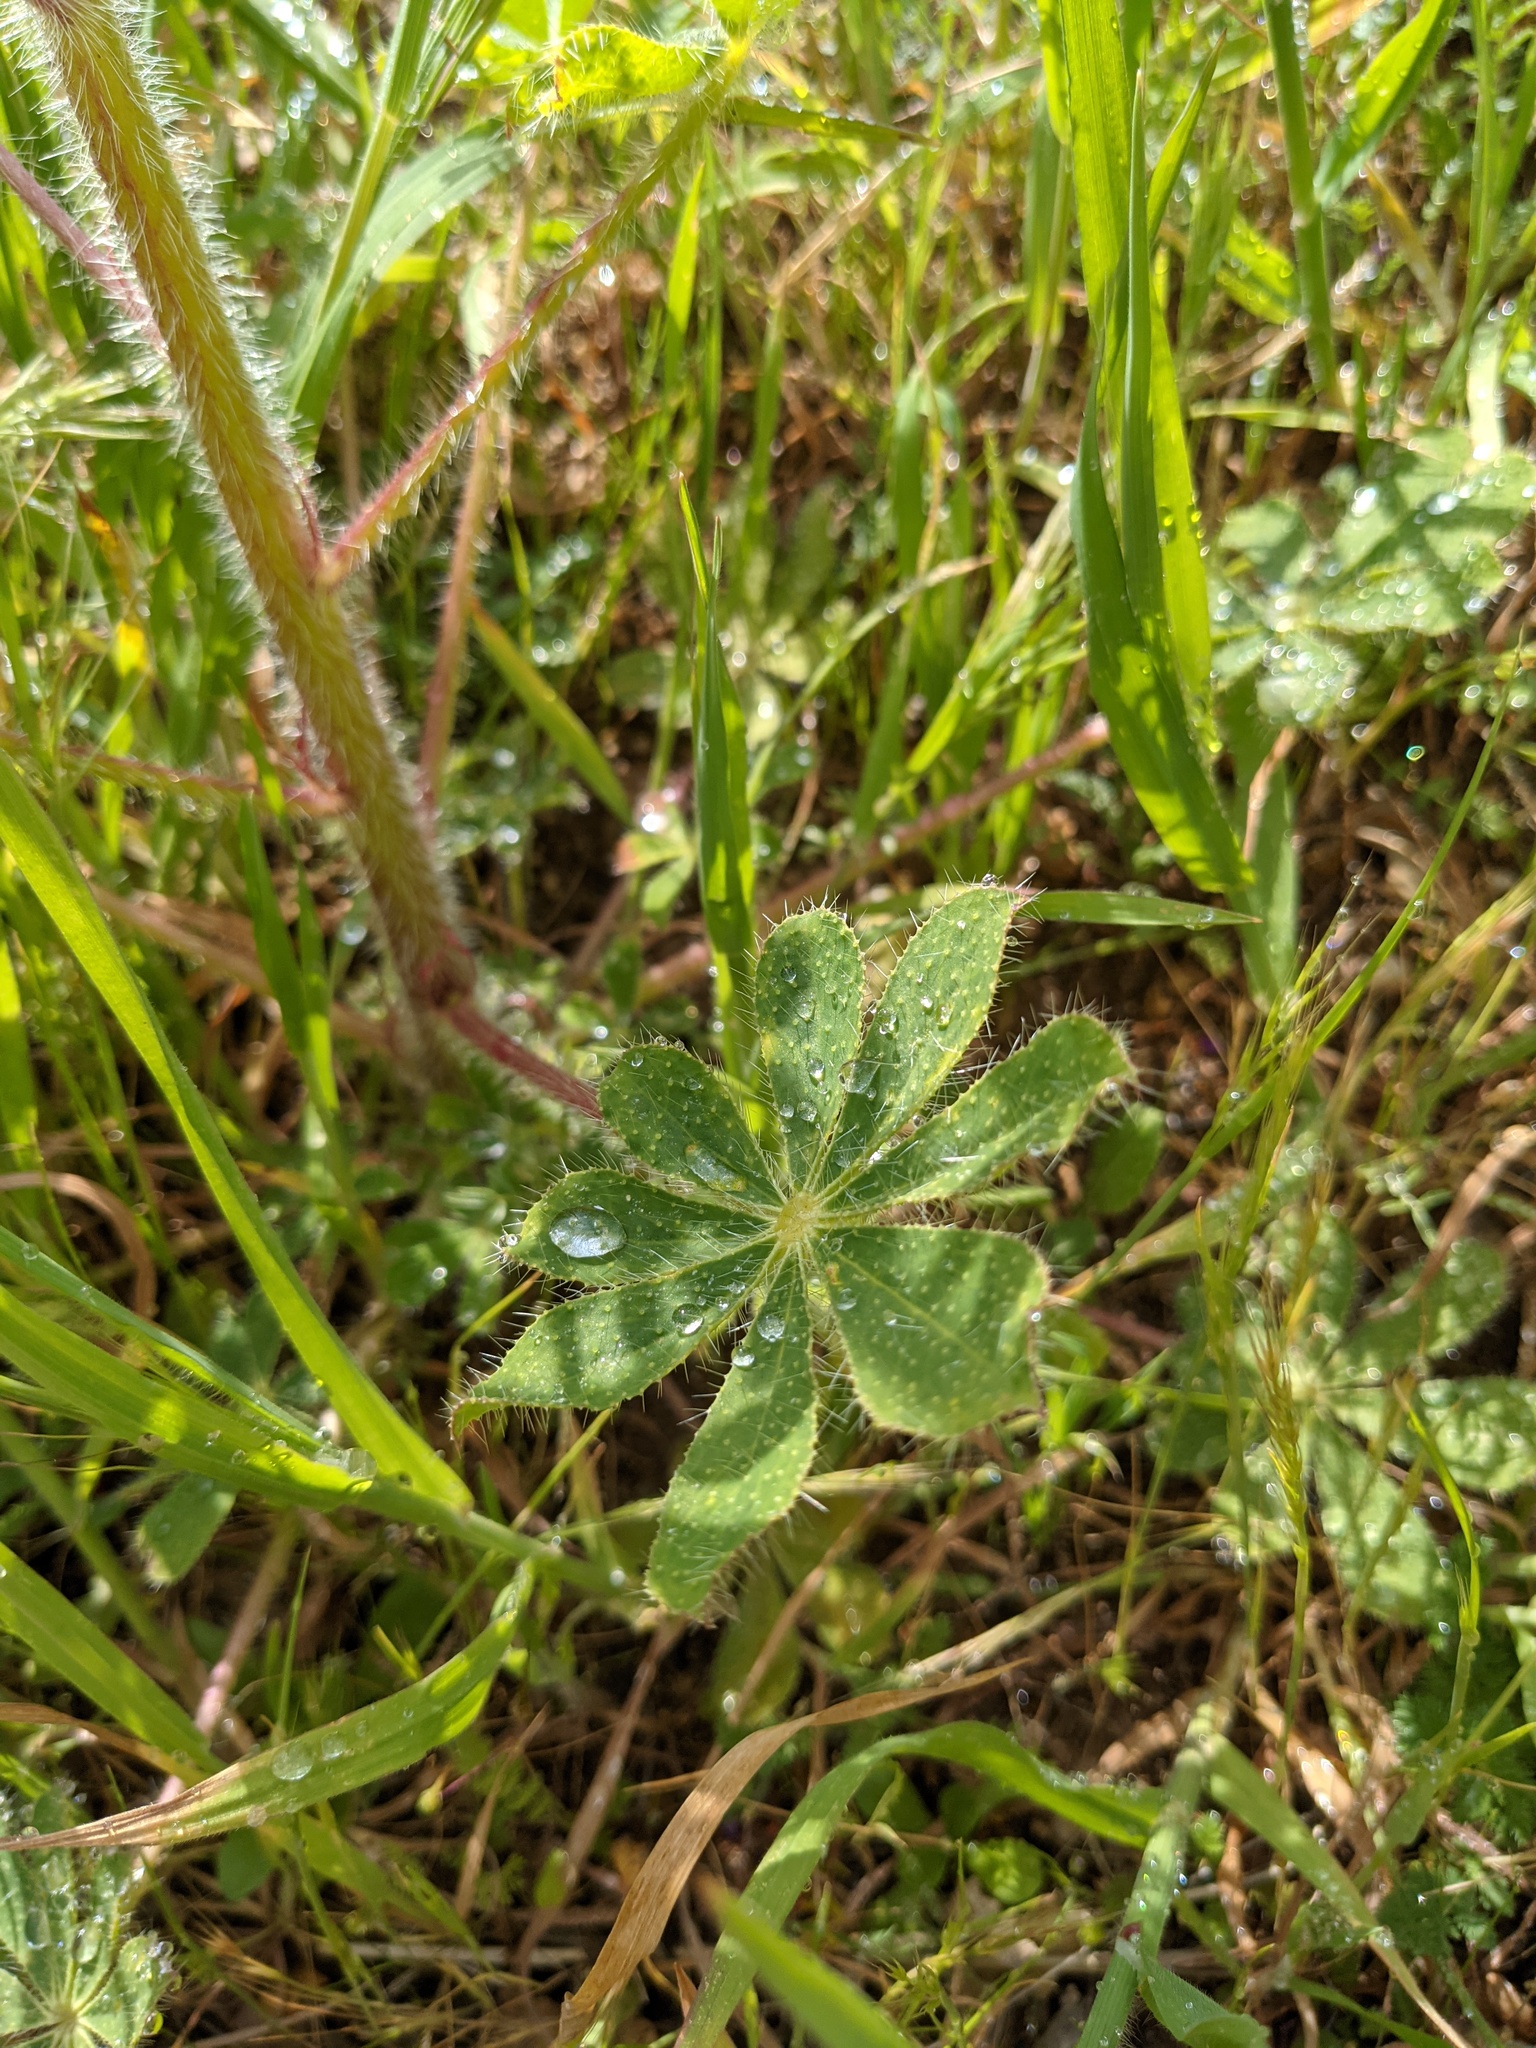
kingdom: Plantae
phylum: Tracheophyta
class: Magnoliopsida
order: Fabales
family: Fabaceae
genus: Lupinus
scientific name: Lupinus hirsutissimus
